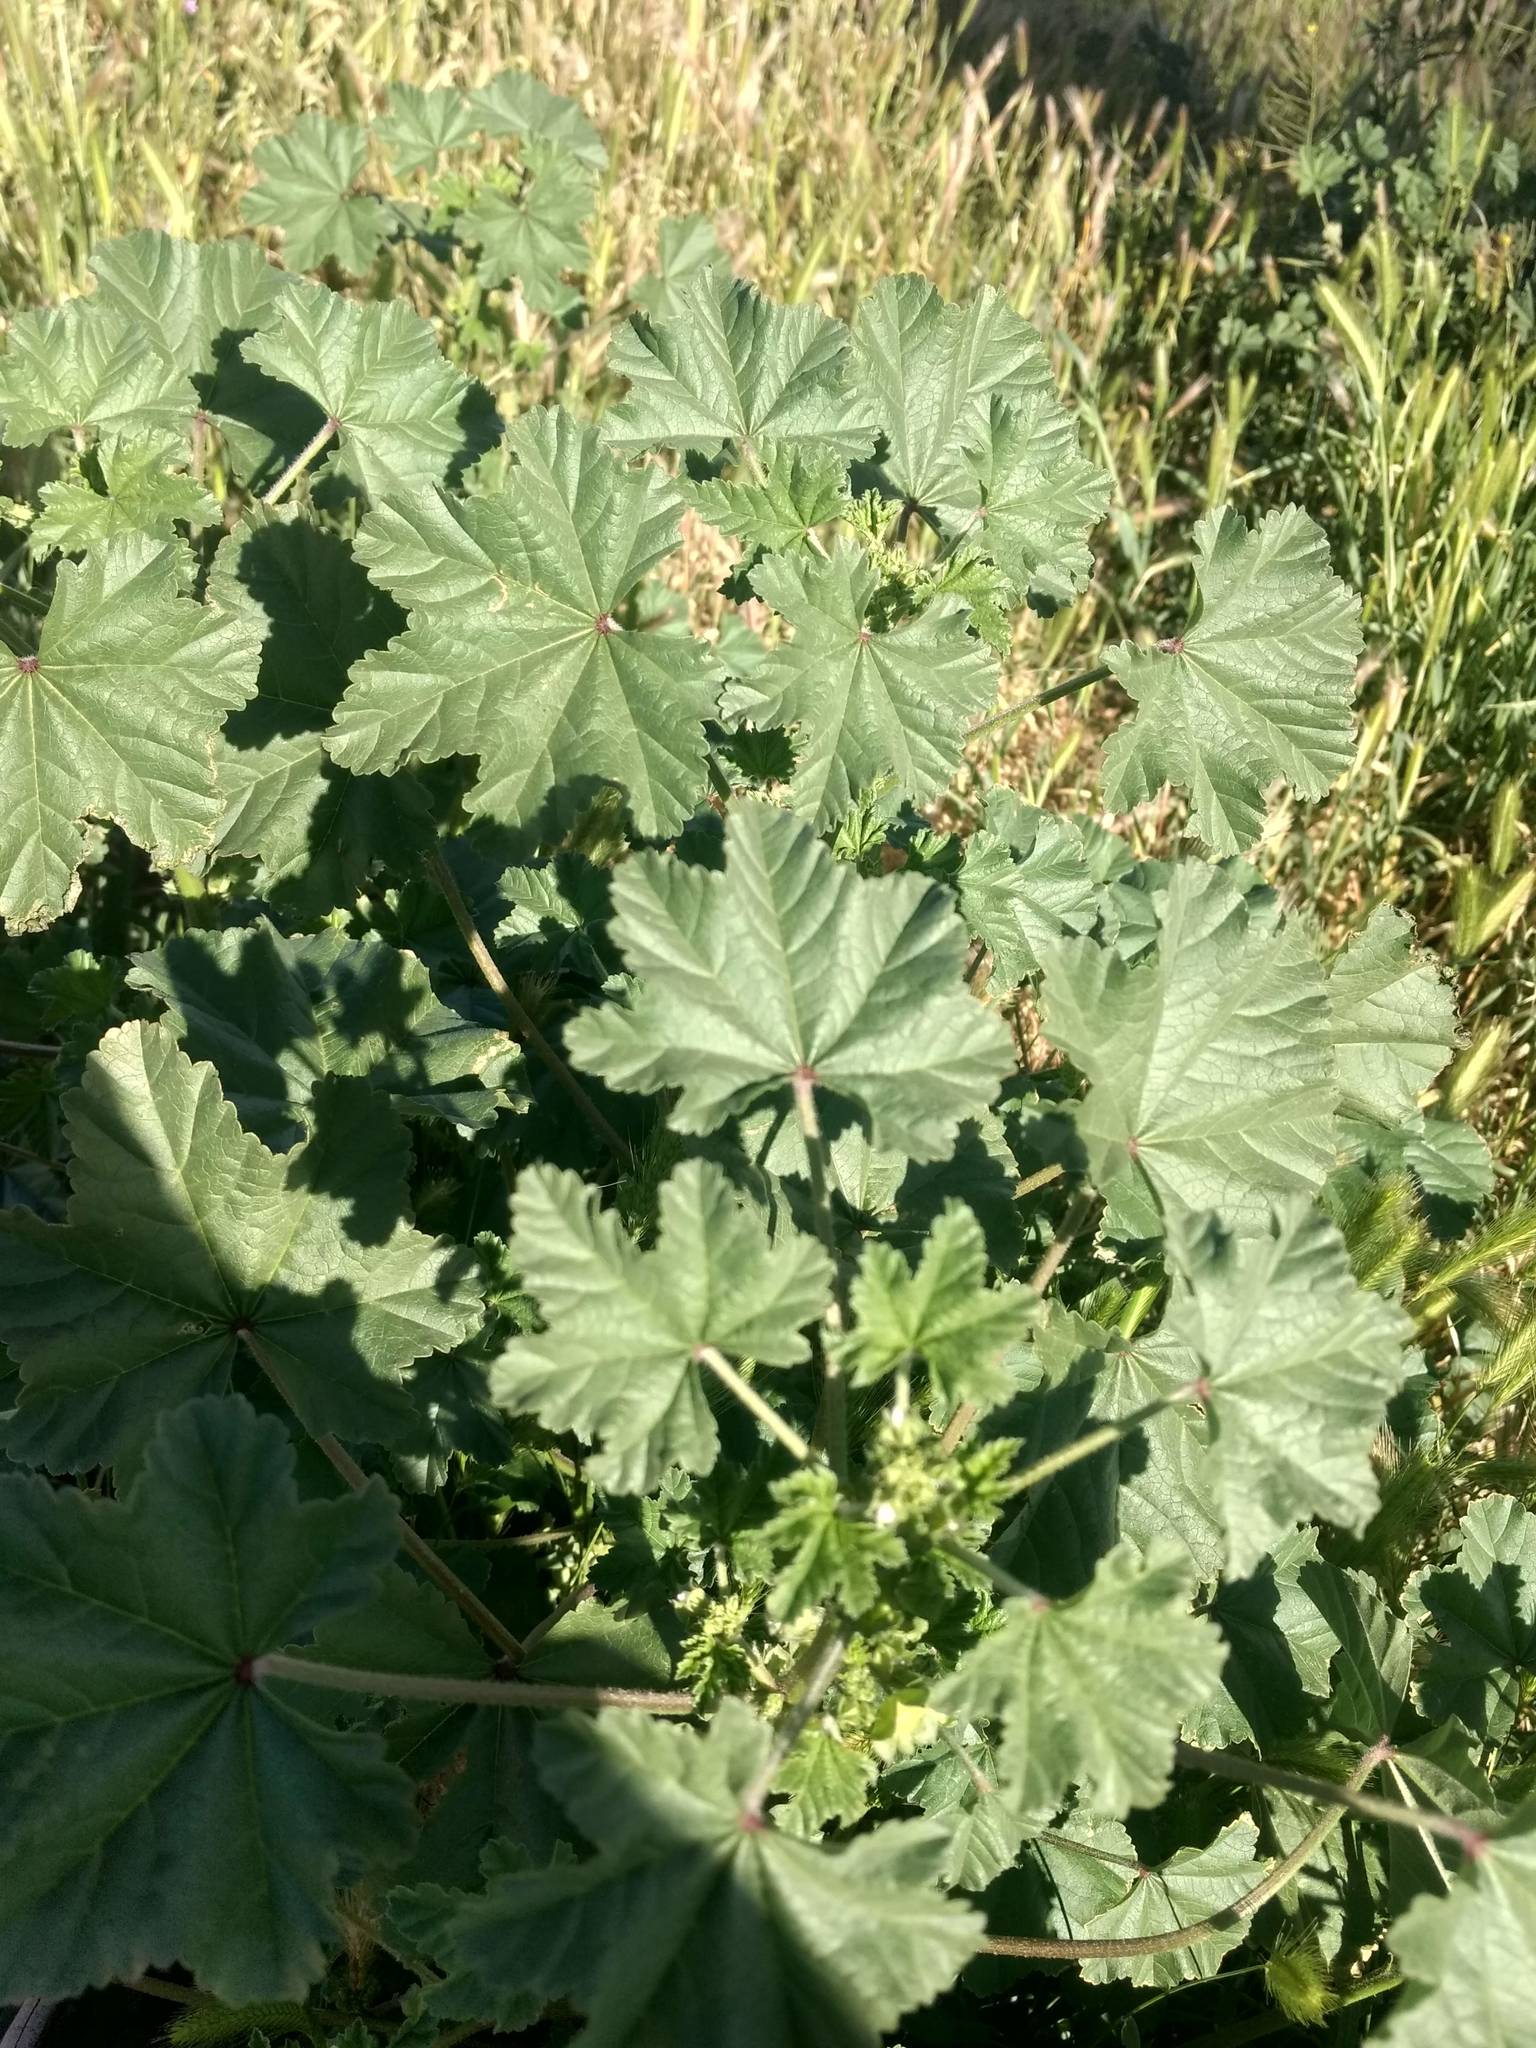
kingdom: Plantae
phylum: Tracheophyta
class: Magnoliopsida
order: Malvales
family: Malvaceae
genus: Malva
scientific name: Malva parviflora
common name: Least mallow
